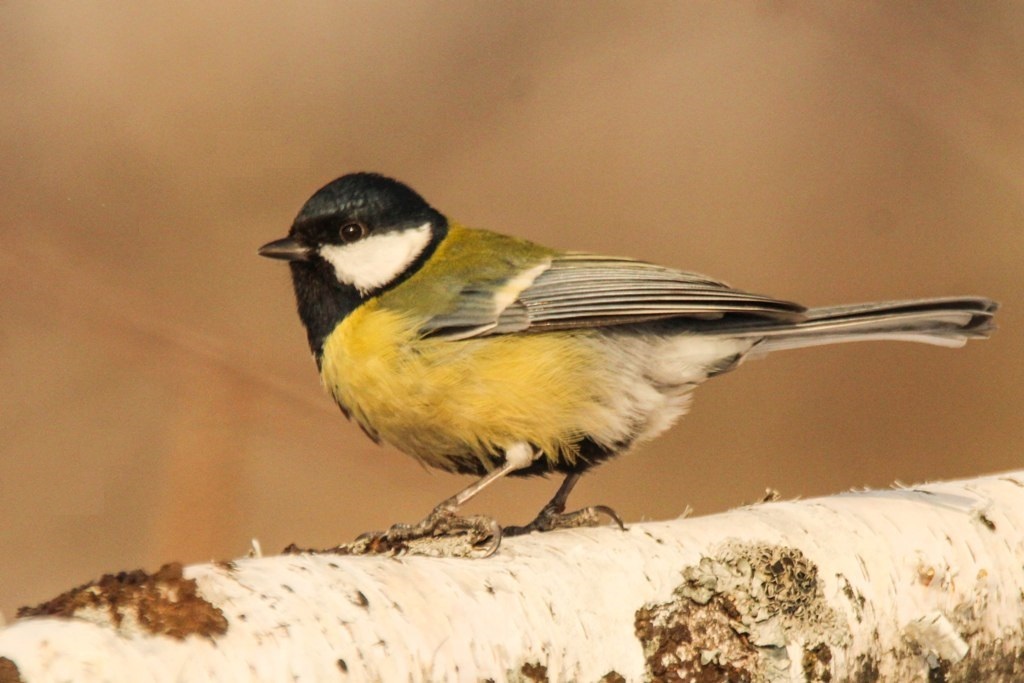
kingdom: Animalia
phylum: Chordata
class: Aves
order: Passeriformes
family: Paridae
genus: Parus
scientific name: Parus major
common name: Great tit
